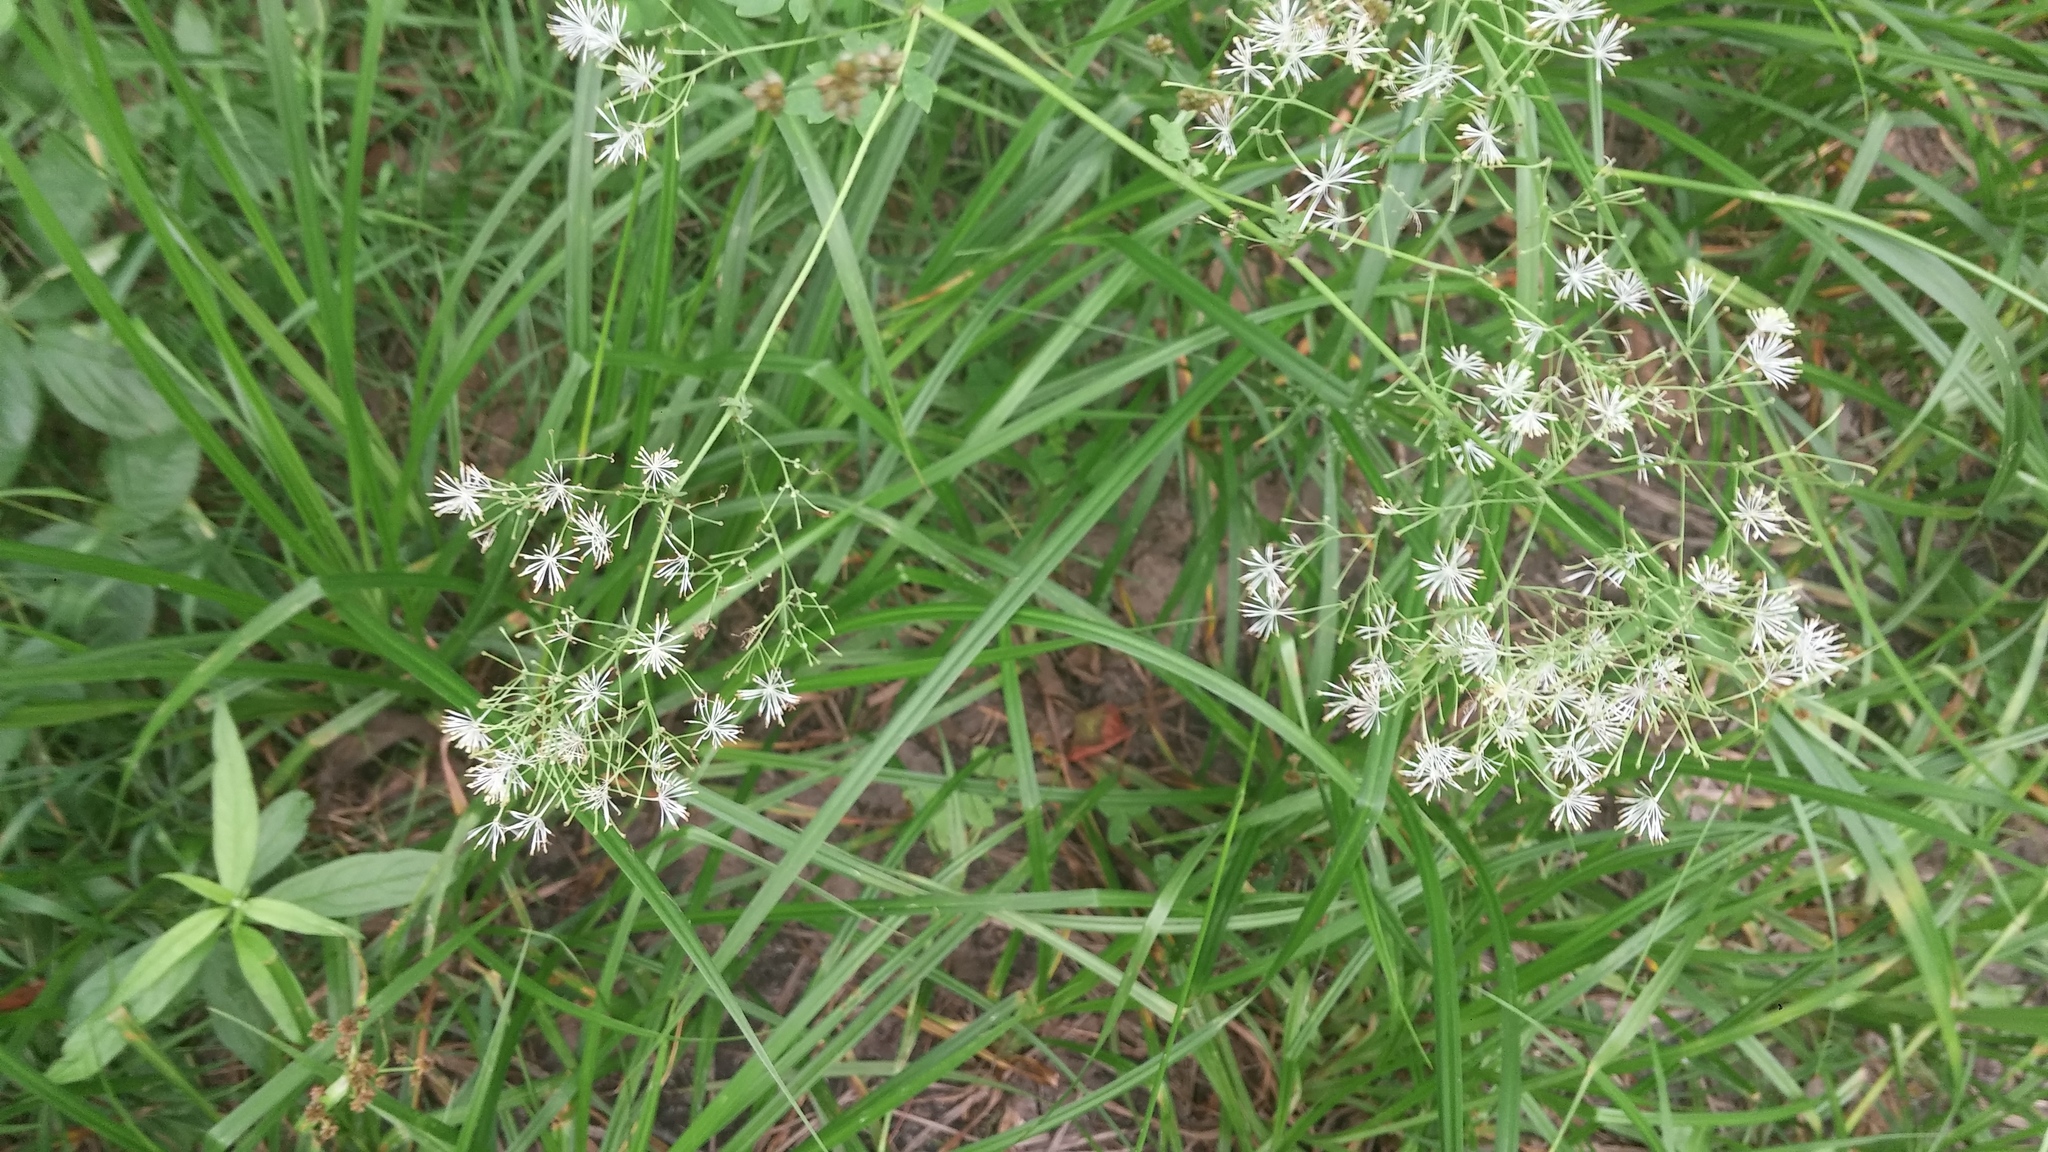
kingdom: Plantae
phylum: Tracheophyta
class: Magnoliopsida
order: Ranunculales
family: Ranunculaceae
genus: Thalictrum
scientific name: Thalictrum pubescens
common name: King-of-the-meadow
